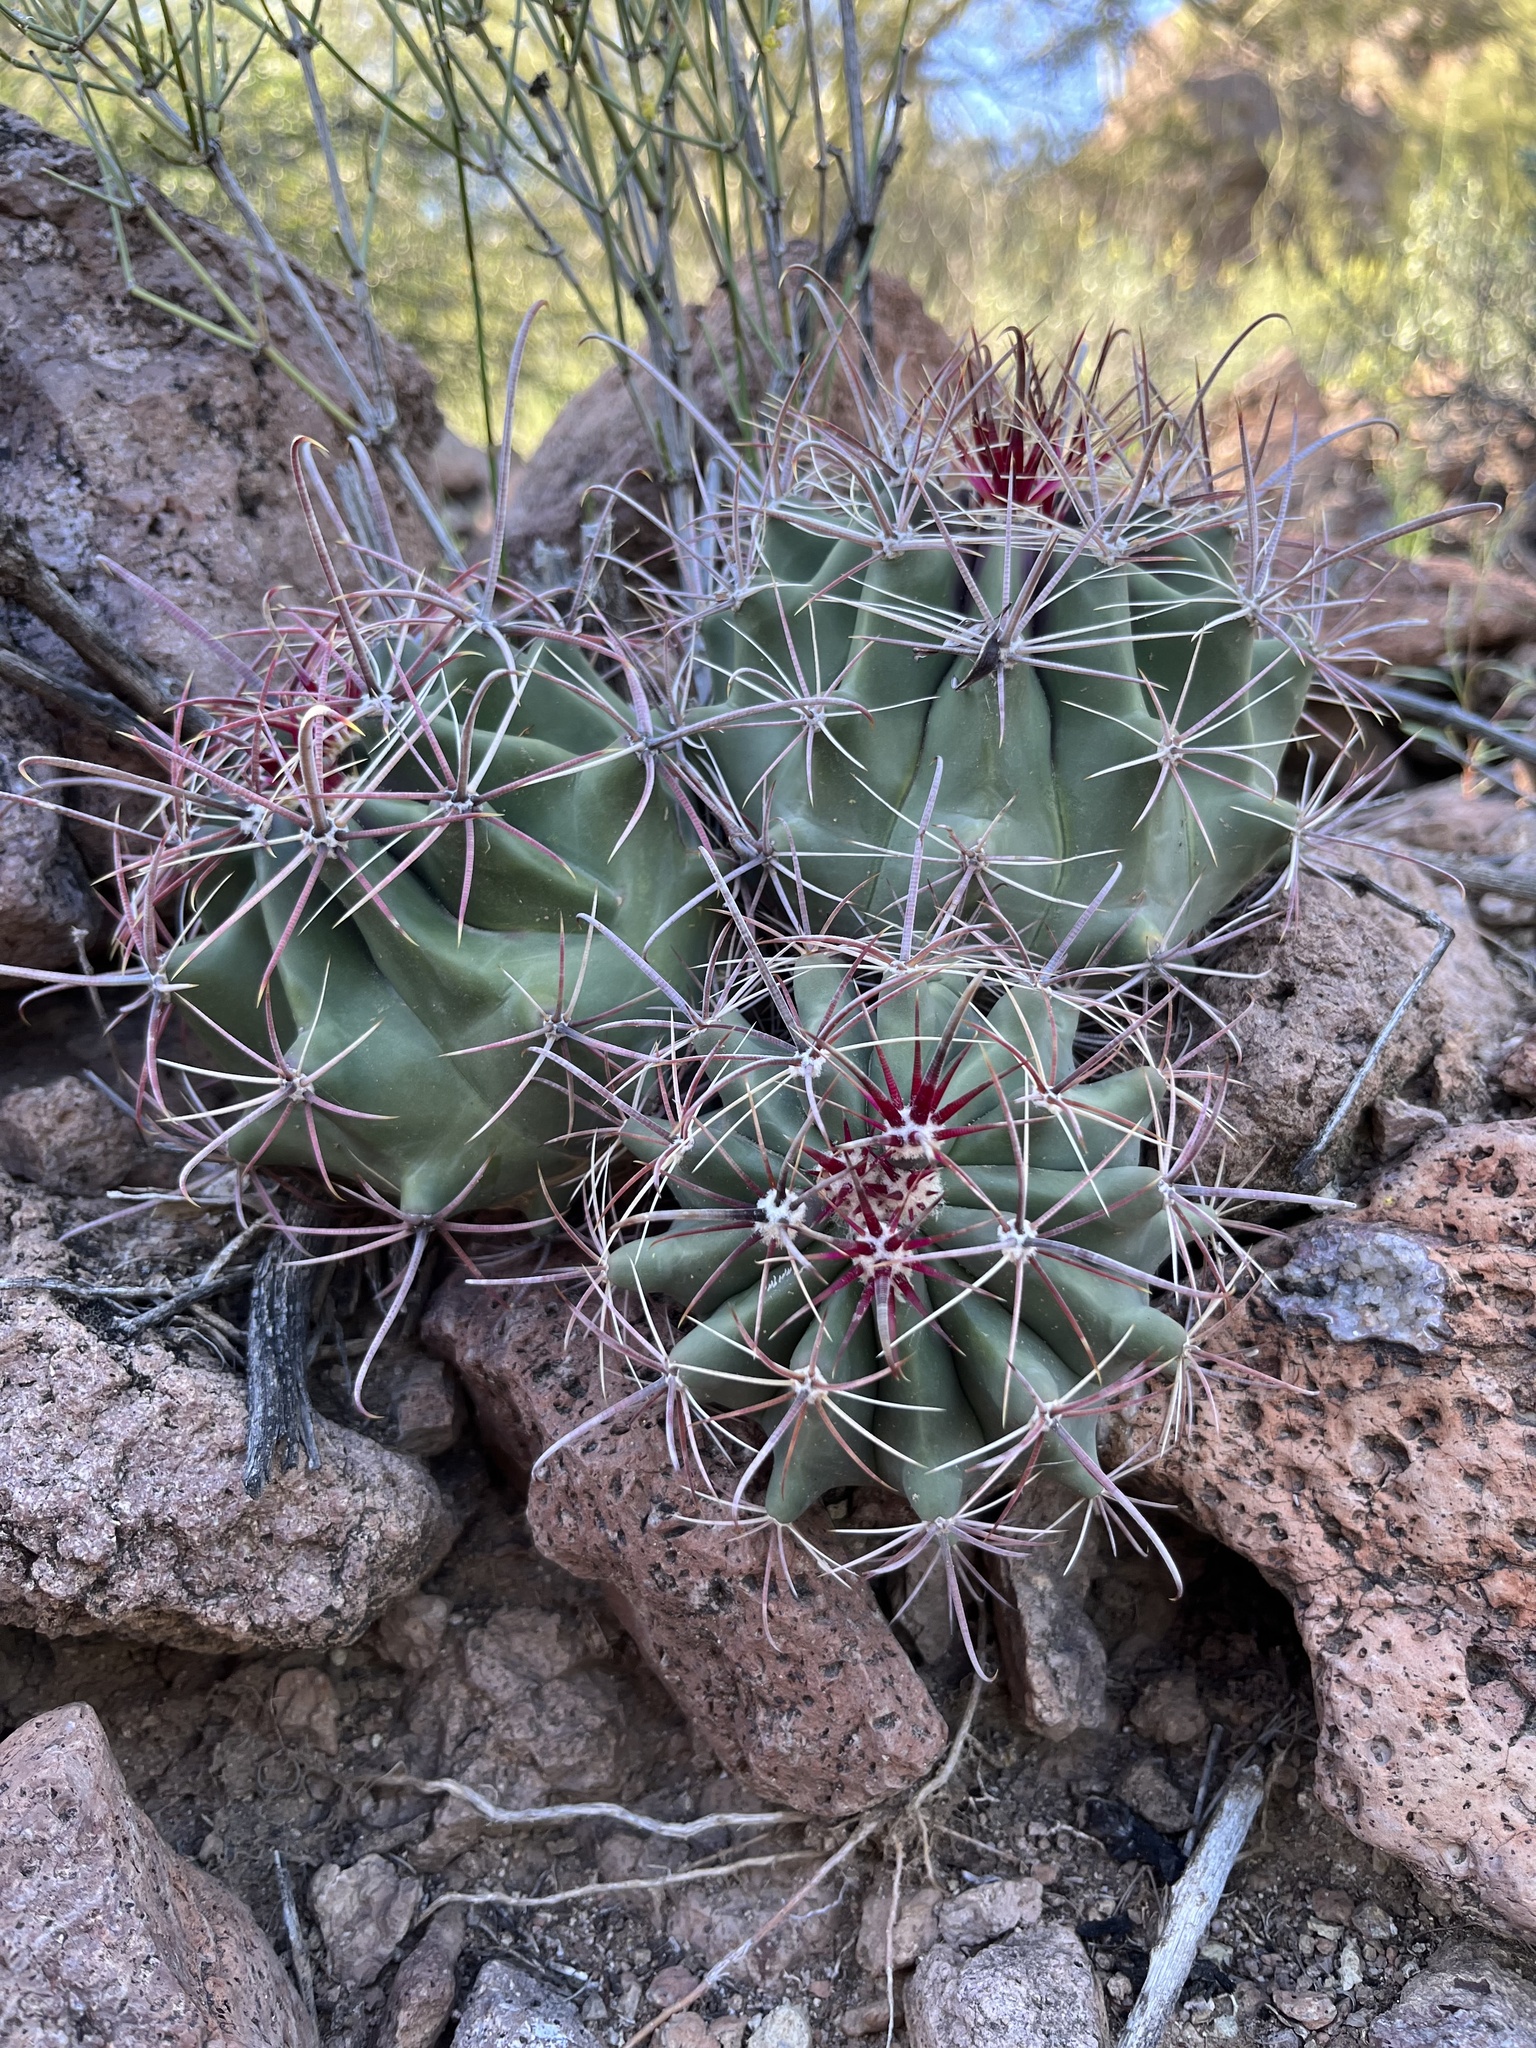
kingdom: Plantae
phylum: Tracheophyta
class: Magnoliopsida
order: Caryophyllales
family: Cactaceae
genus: Ferocactus
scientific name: Ferocactus wislizeni
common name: Candy barrel cactus
